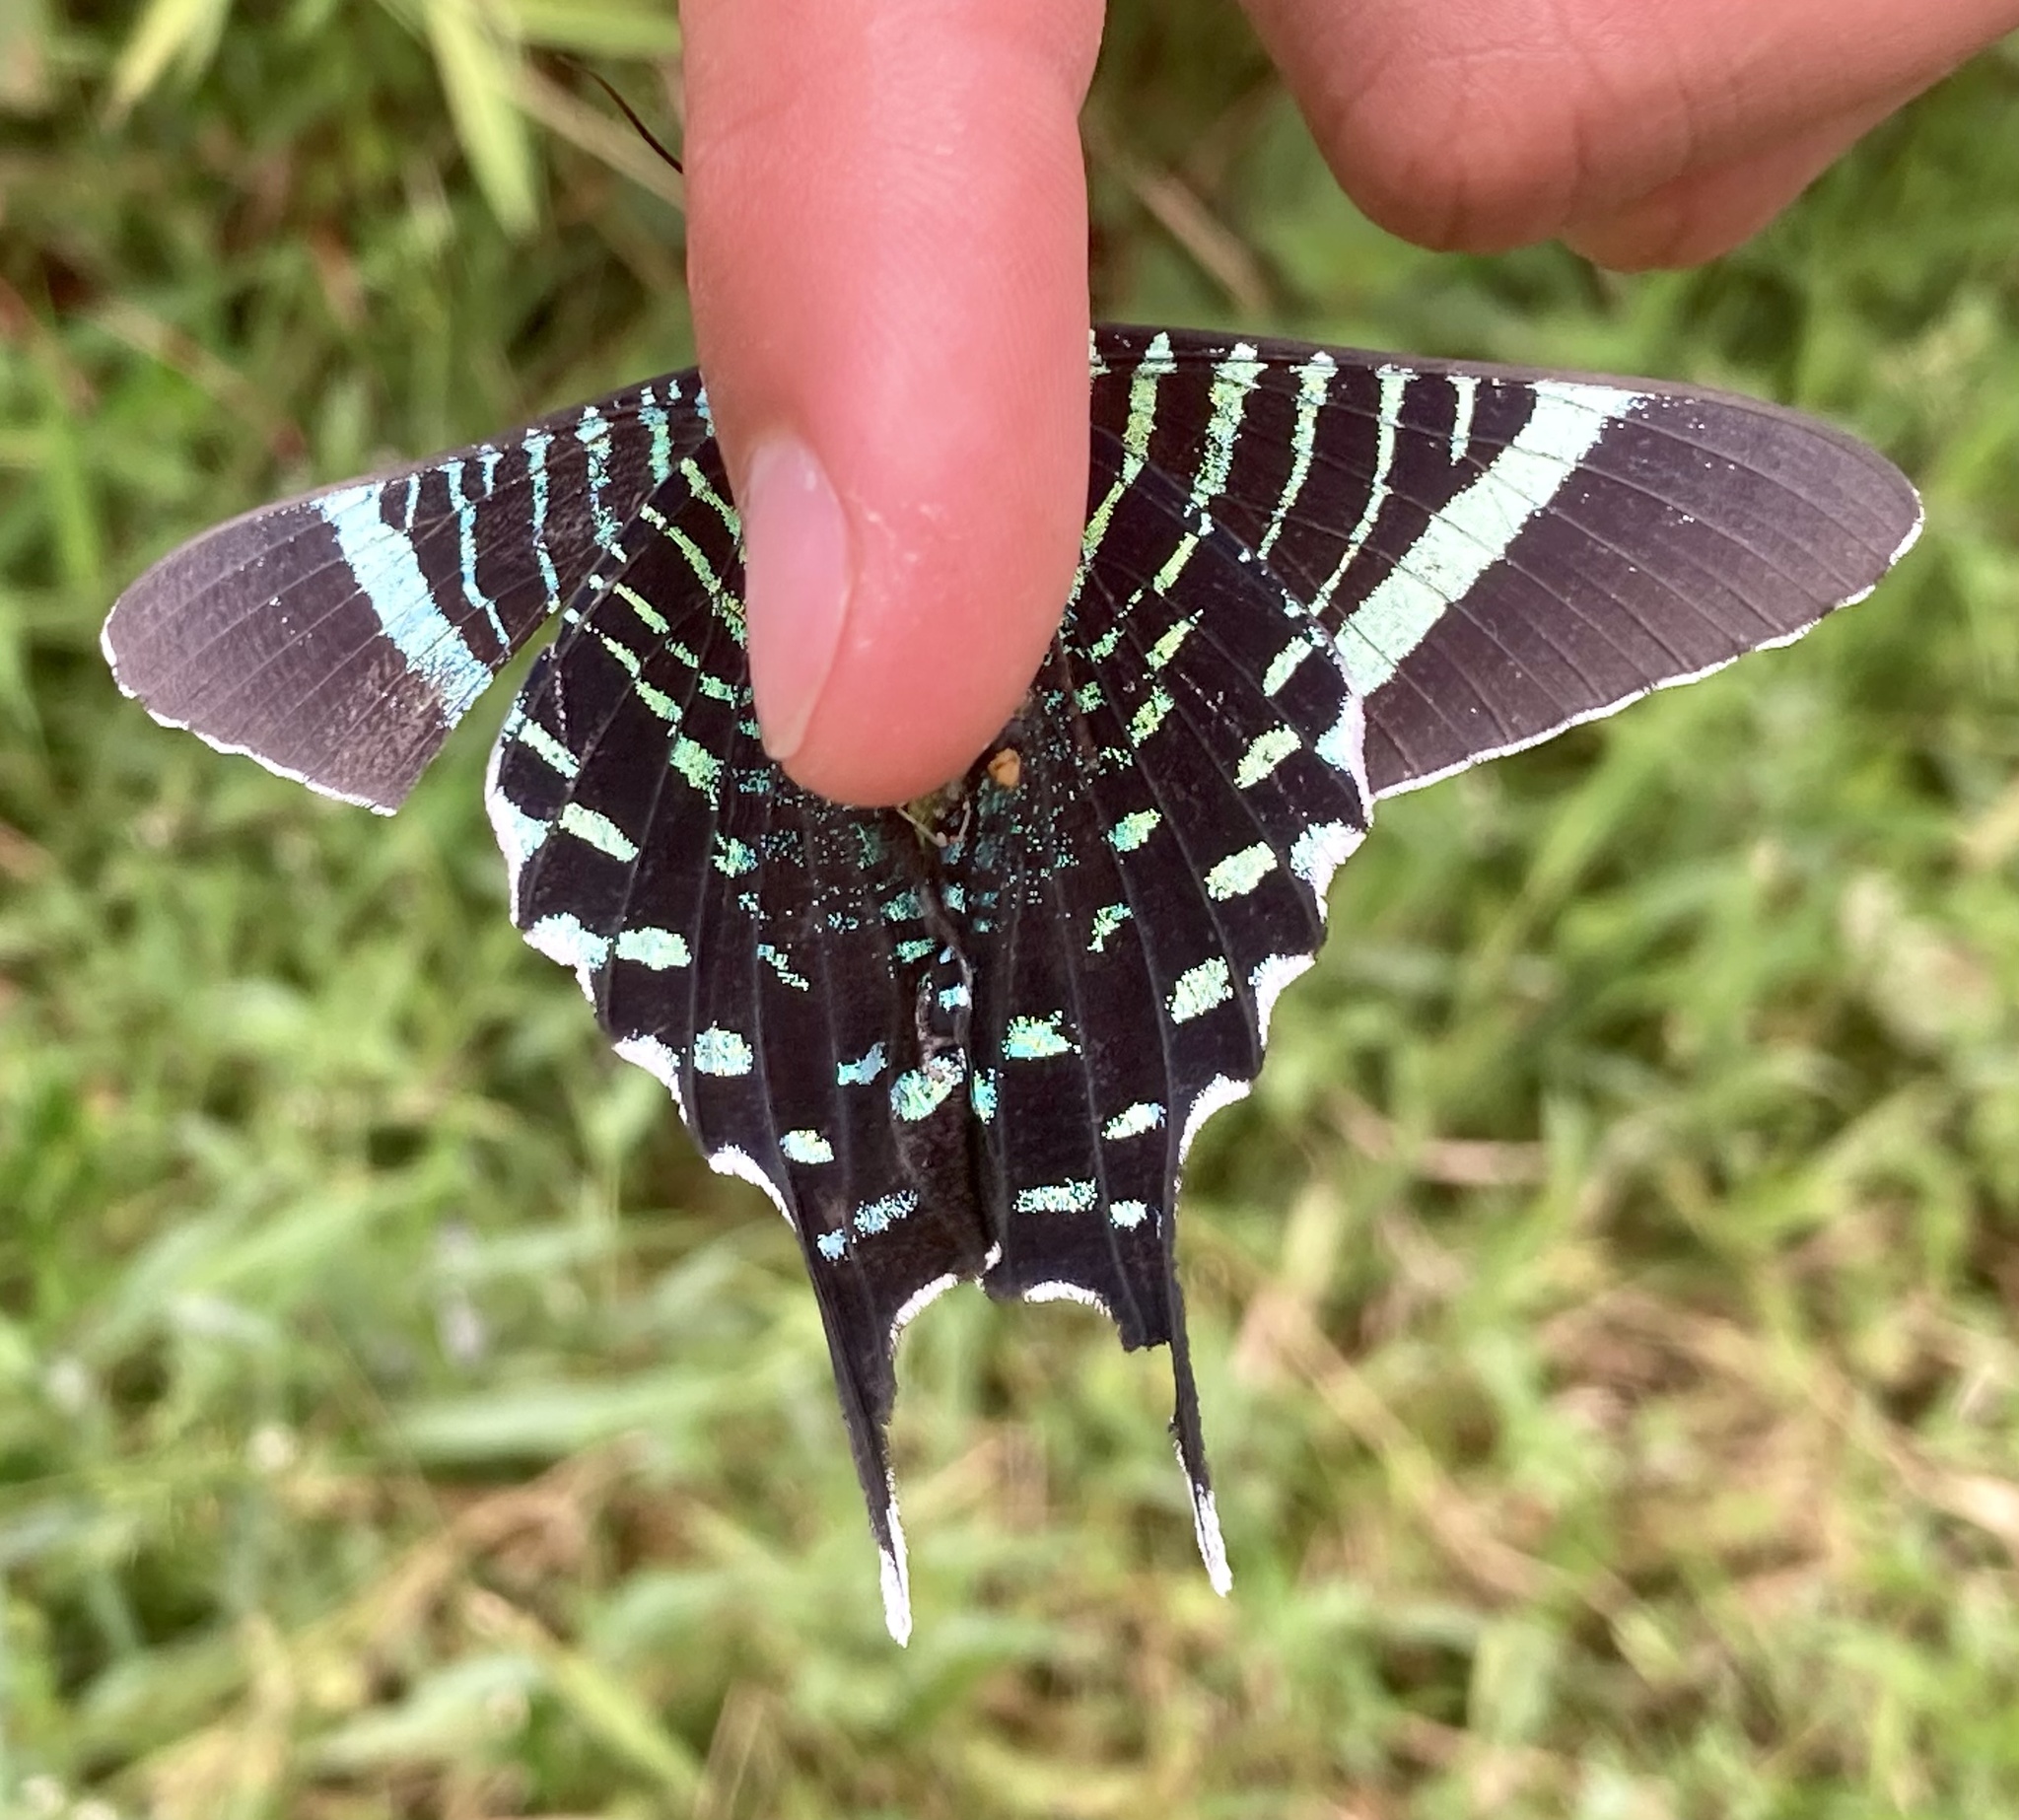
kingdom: Animalia
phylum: Arthropoda
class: Insecta
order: Lepidoptera
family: Uraniidae
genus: Urania
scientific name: Urania fulgens
